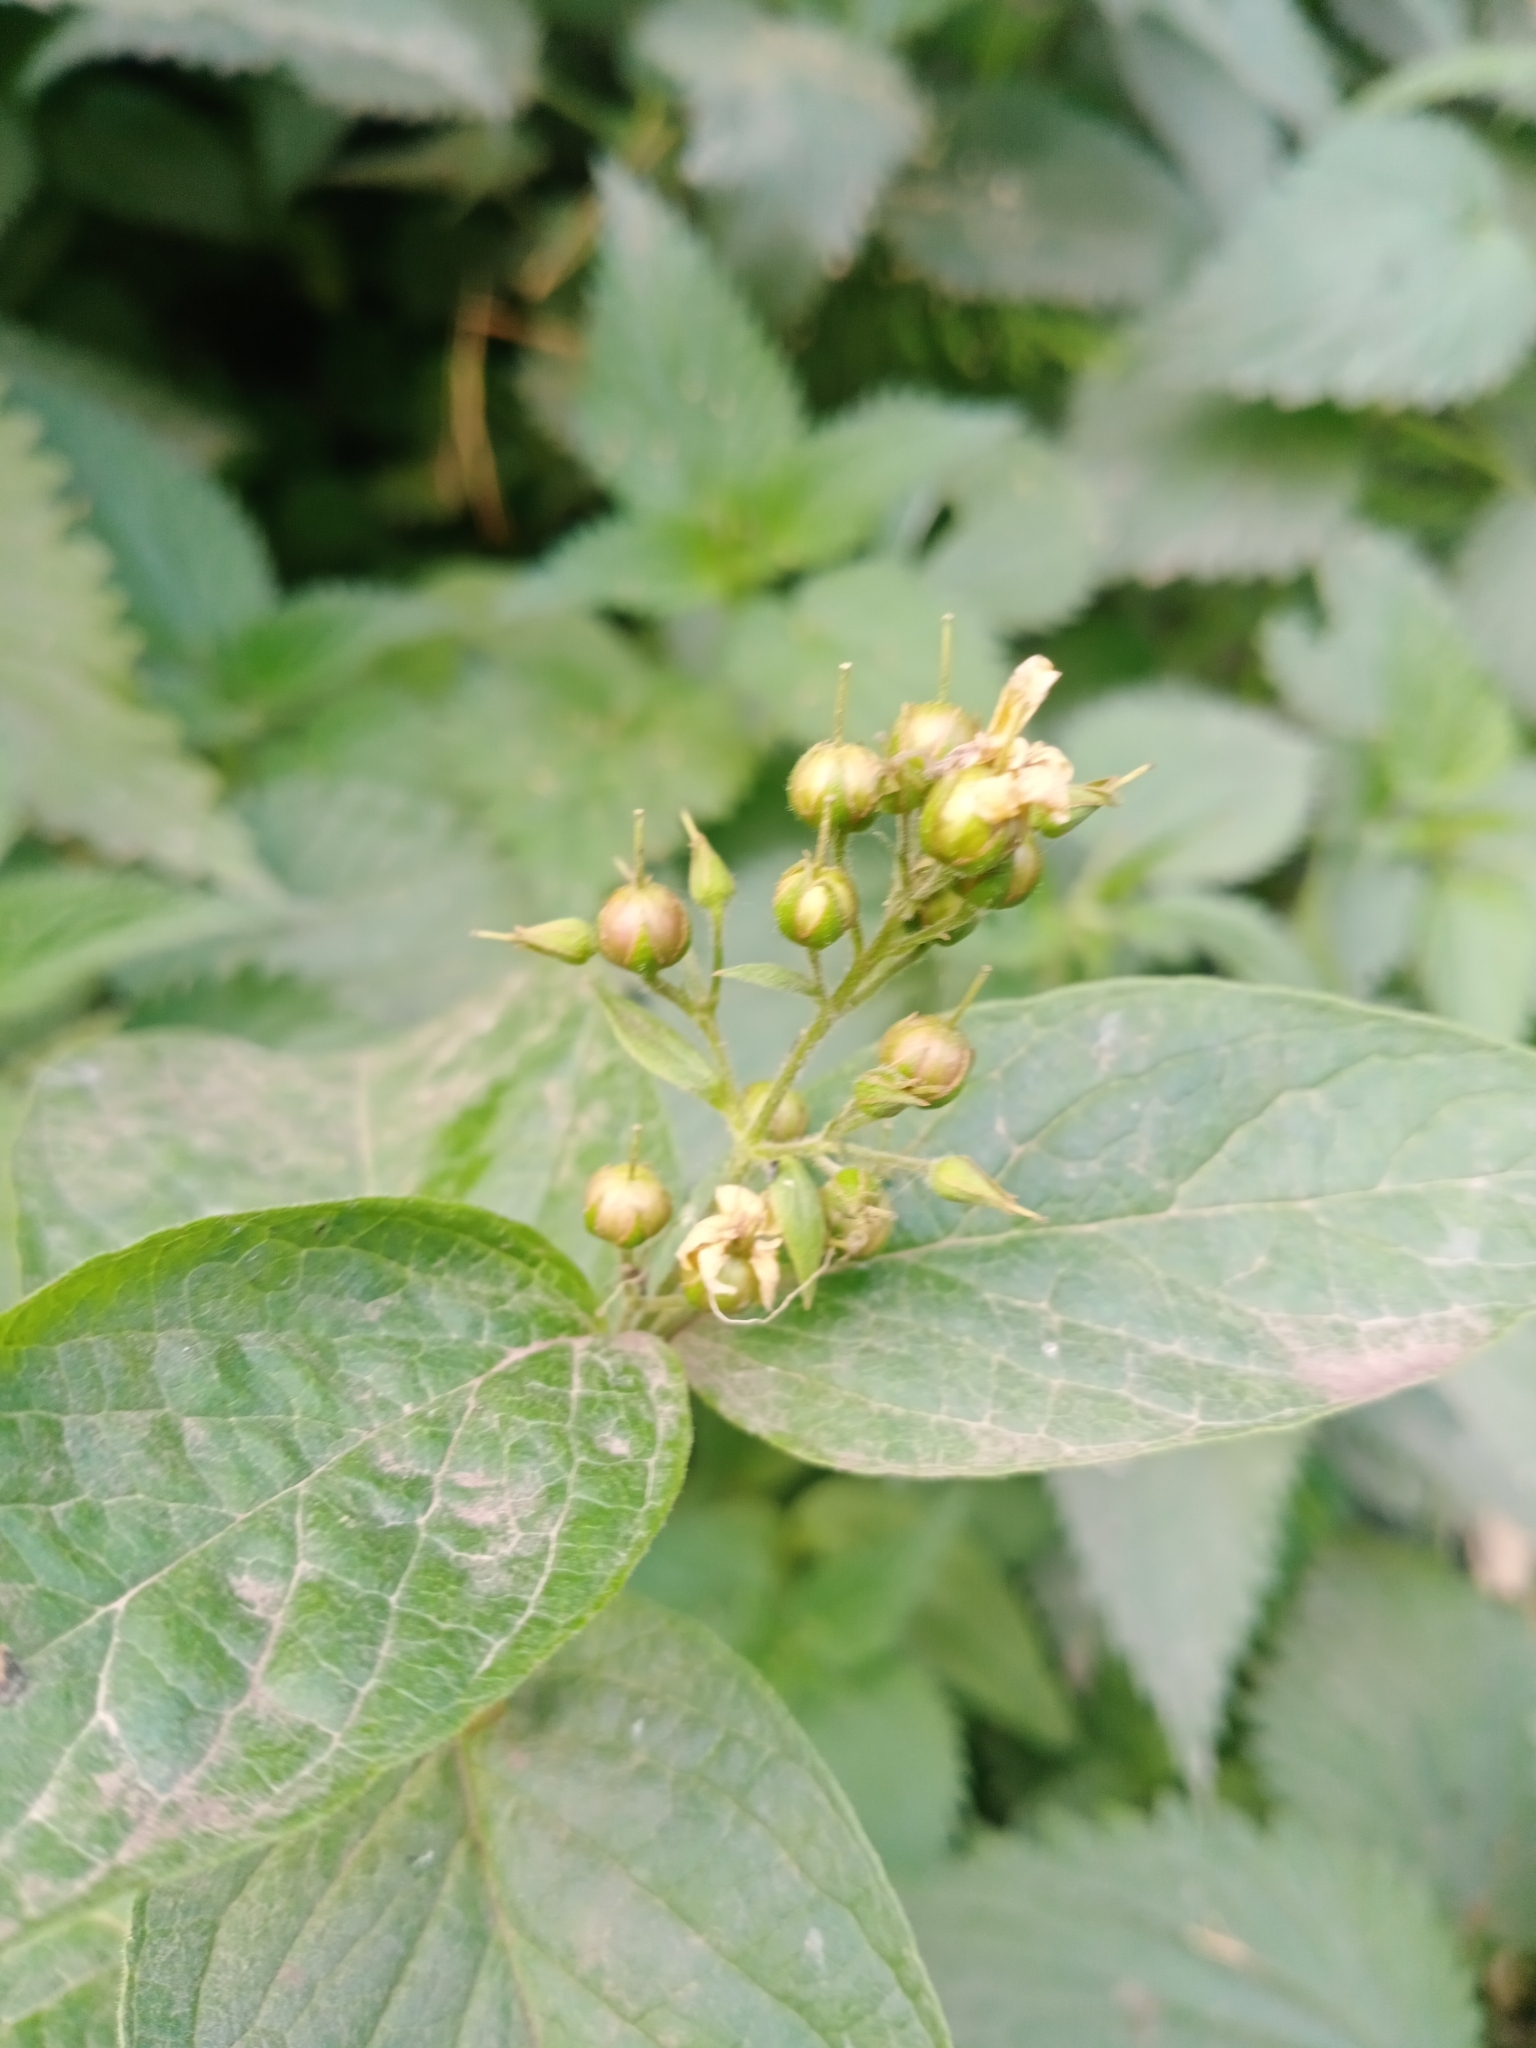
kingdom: Plantae
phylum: Tracheophyta
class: Magnoliopsida
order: Ericales
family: Primulaceae
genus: Lysimachia
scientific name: Lysimachia vulgaris
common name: Yellow loosestrife
